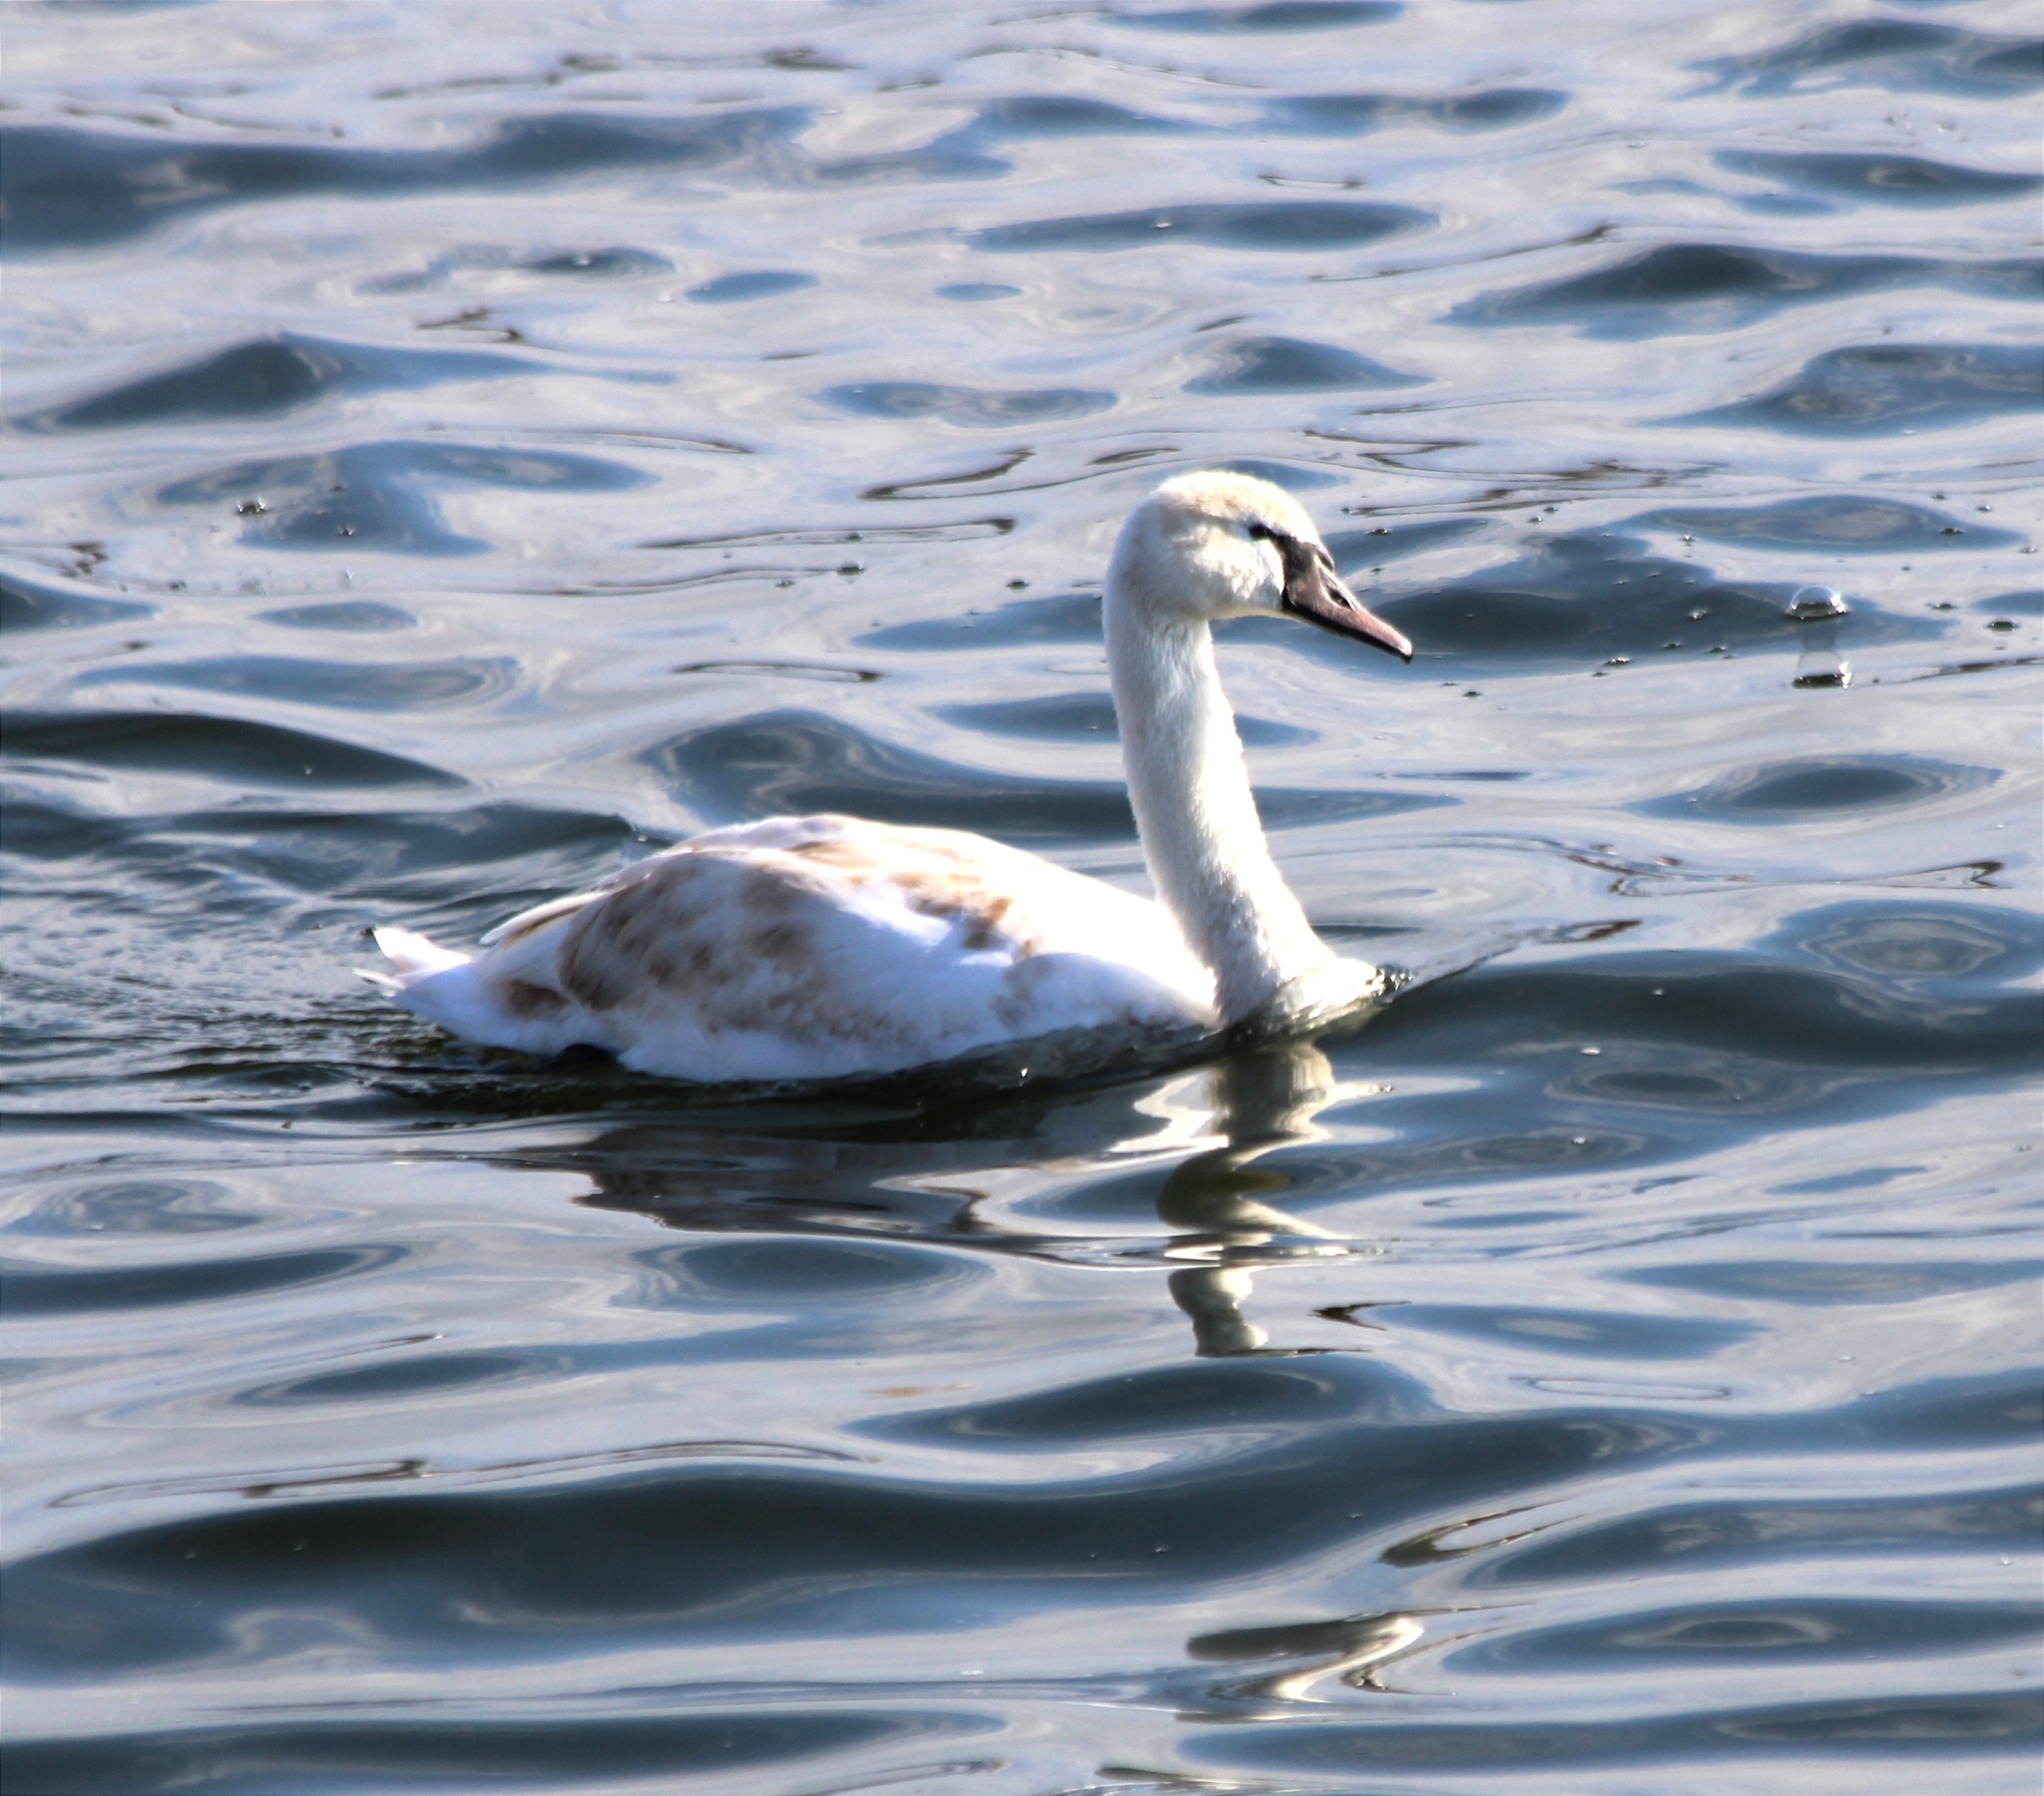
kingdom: Animalia
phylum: Chordata
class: Aves
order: Anseriformes
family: Anatidae
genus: Cygnus
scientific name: Cygnus olor
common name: Mute swan
